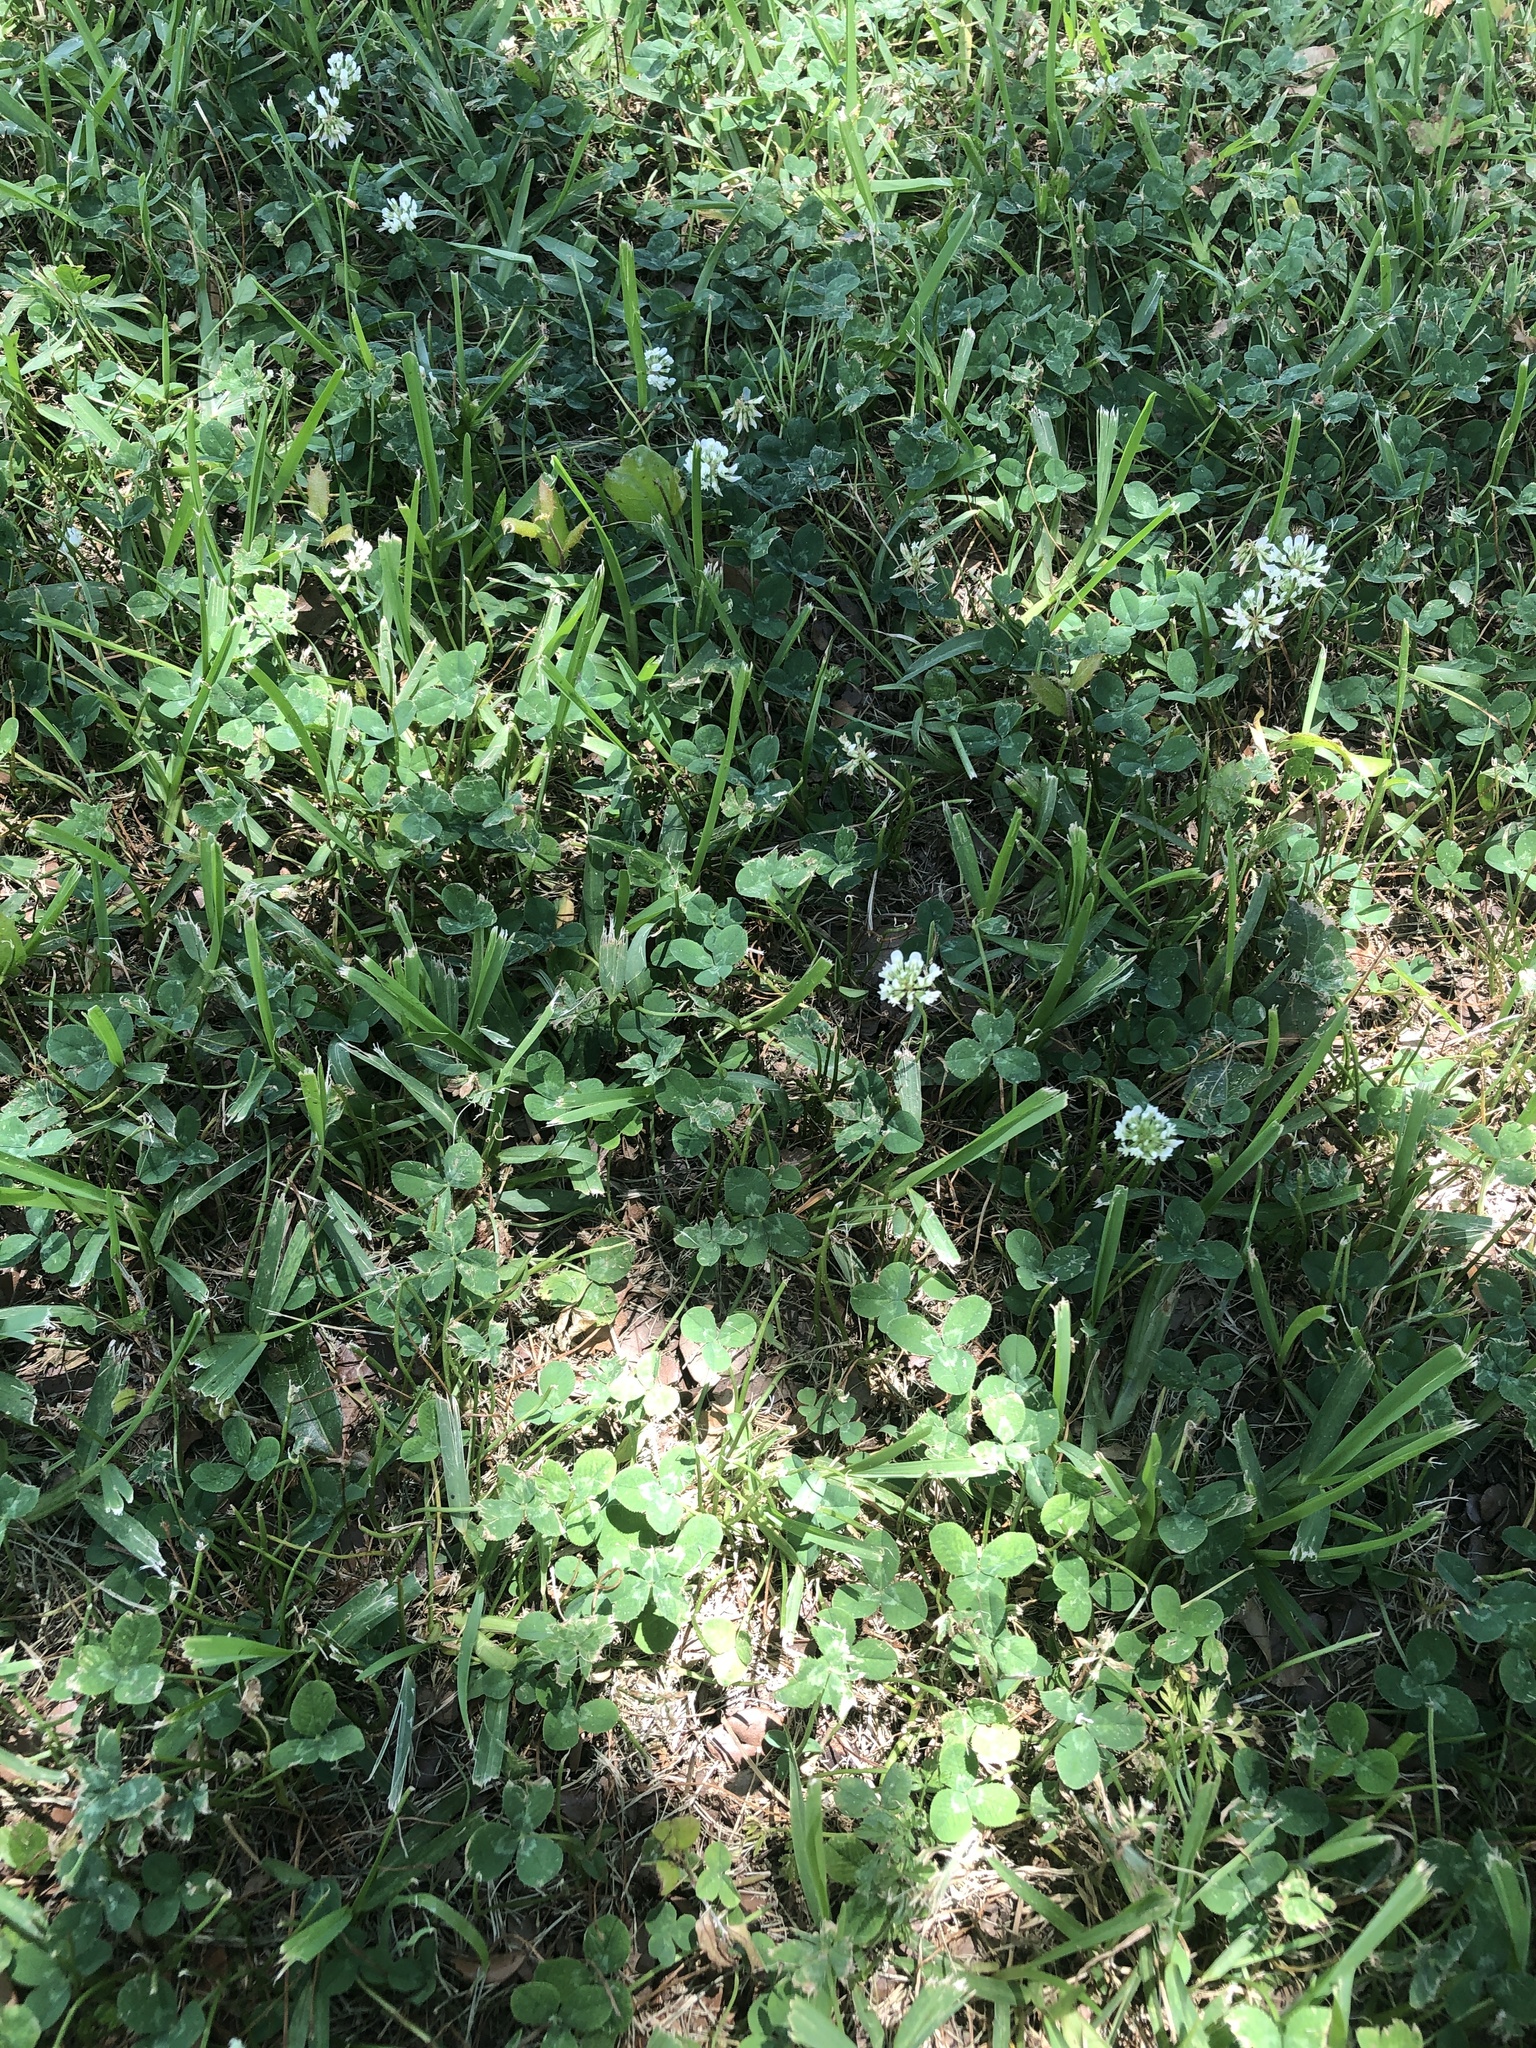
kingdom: Plantae
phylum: Tracheophyta
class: Magnoliopsida
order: Fabales
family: Fabaceae
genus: Trifolium
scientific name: Trifolium repens
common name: White clover
